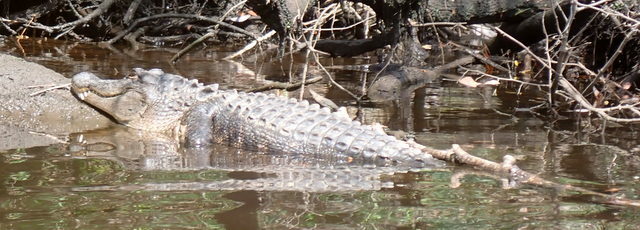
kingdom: Animalia
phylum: Chordata
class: Crocodylia
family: Alligatoridae
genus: Alligator
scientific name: Alligator mississippiensis
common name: American alligator
